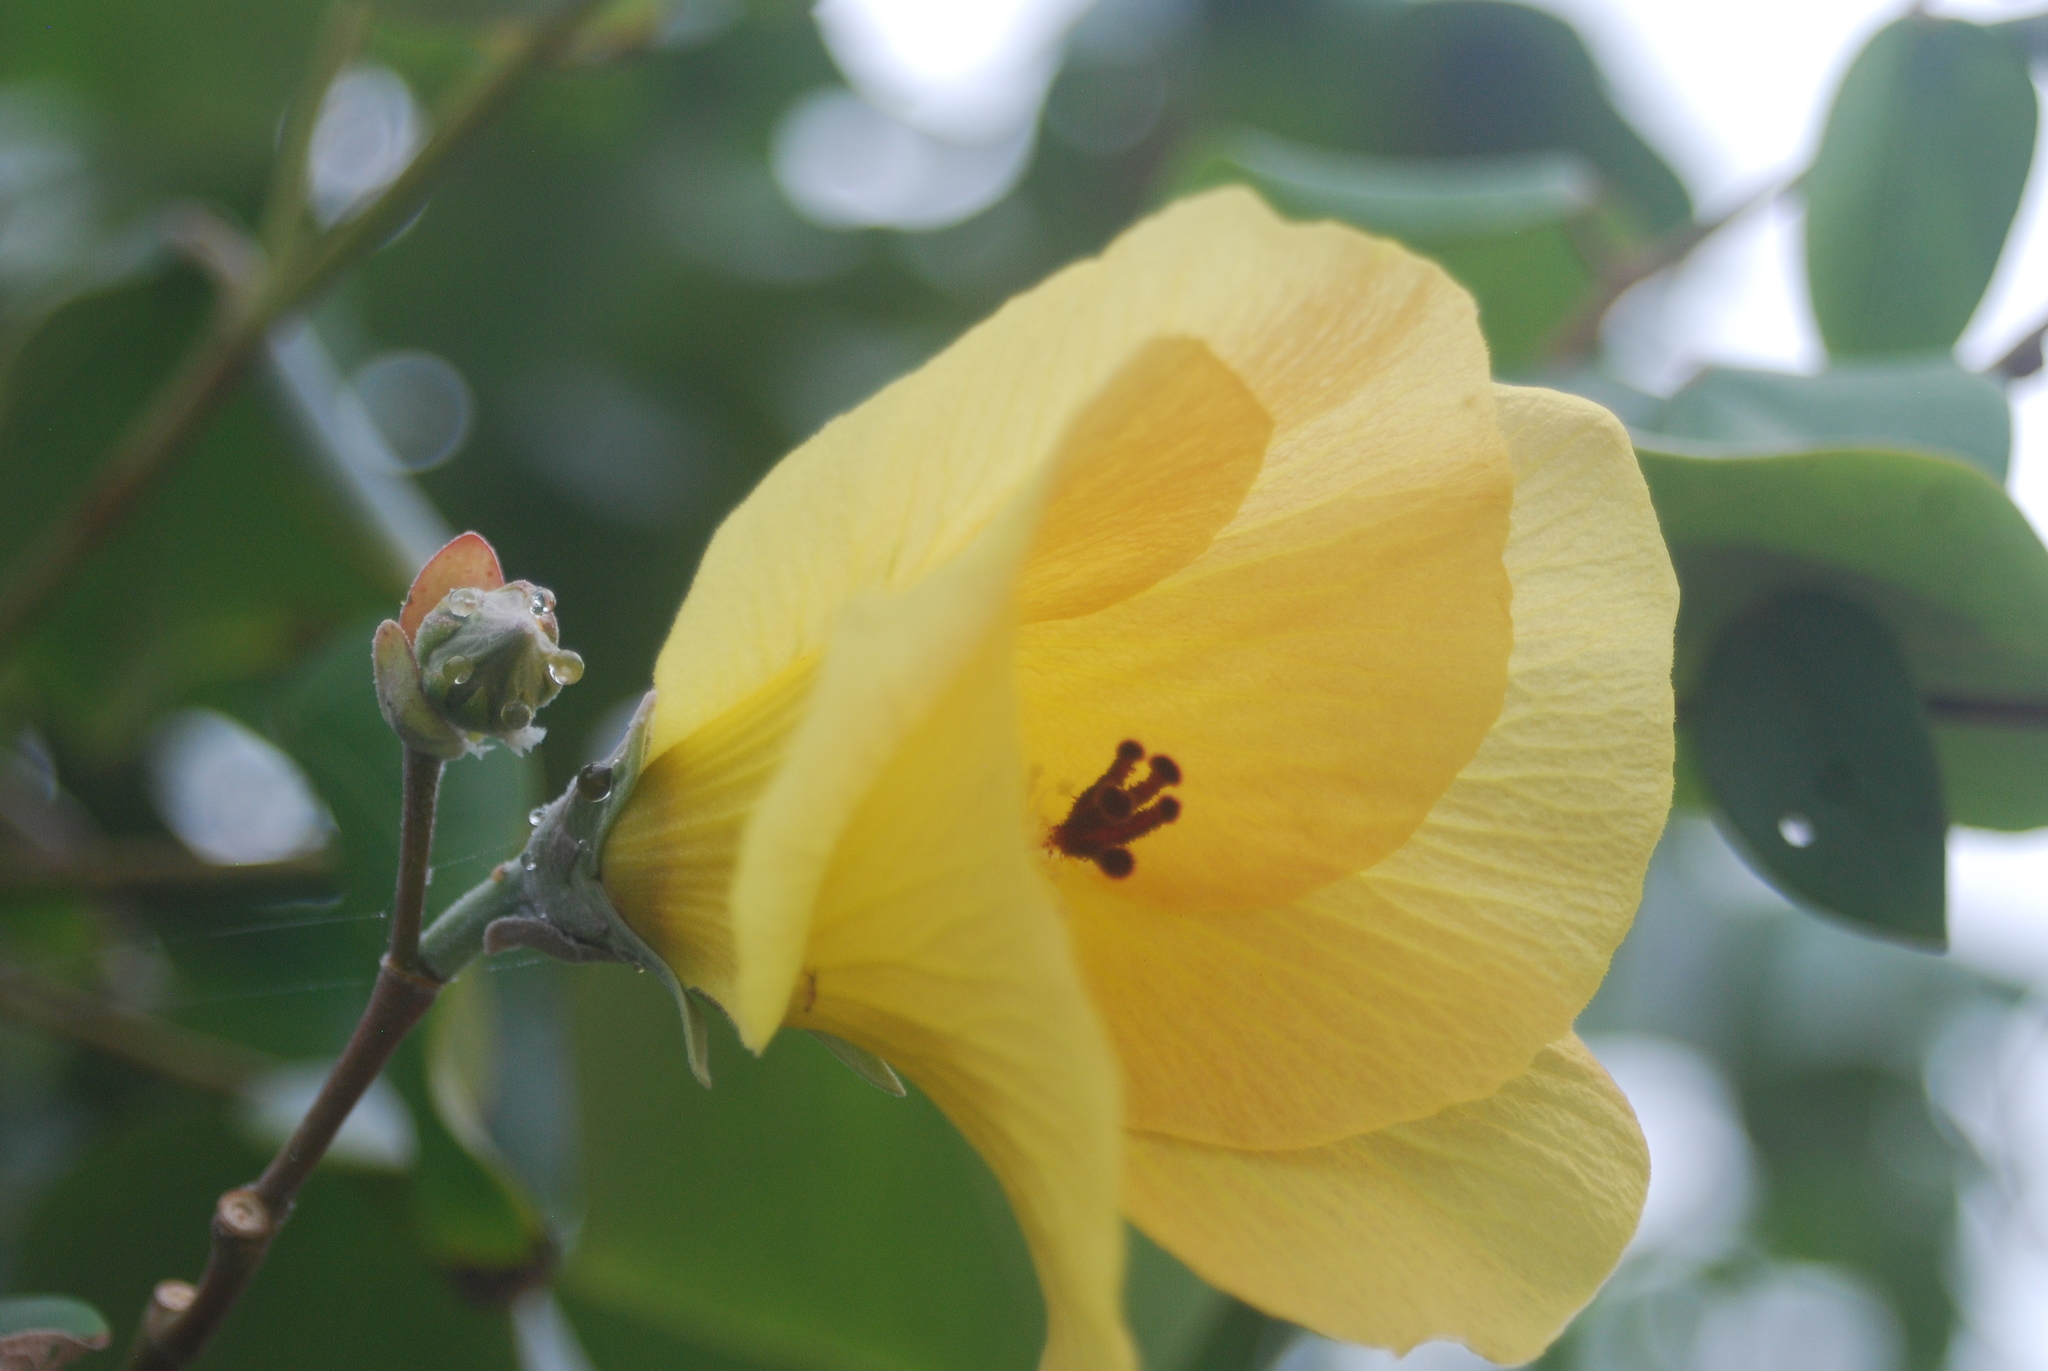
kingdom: Plantae
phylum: Tracheophyta
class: Magnoliopsida
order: Malvales
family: Malvaceae
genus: Talipariti
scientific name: Talipariti tiliaceum
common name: Sea hibiscus
